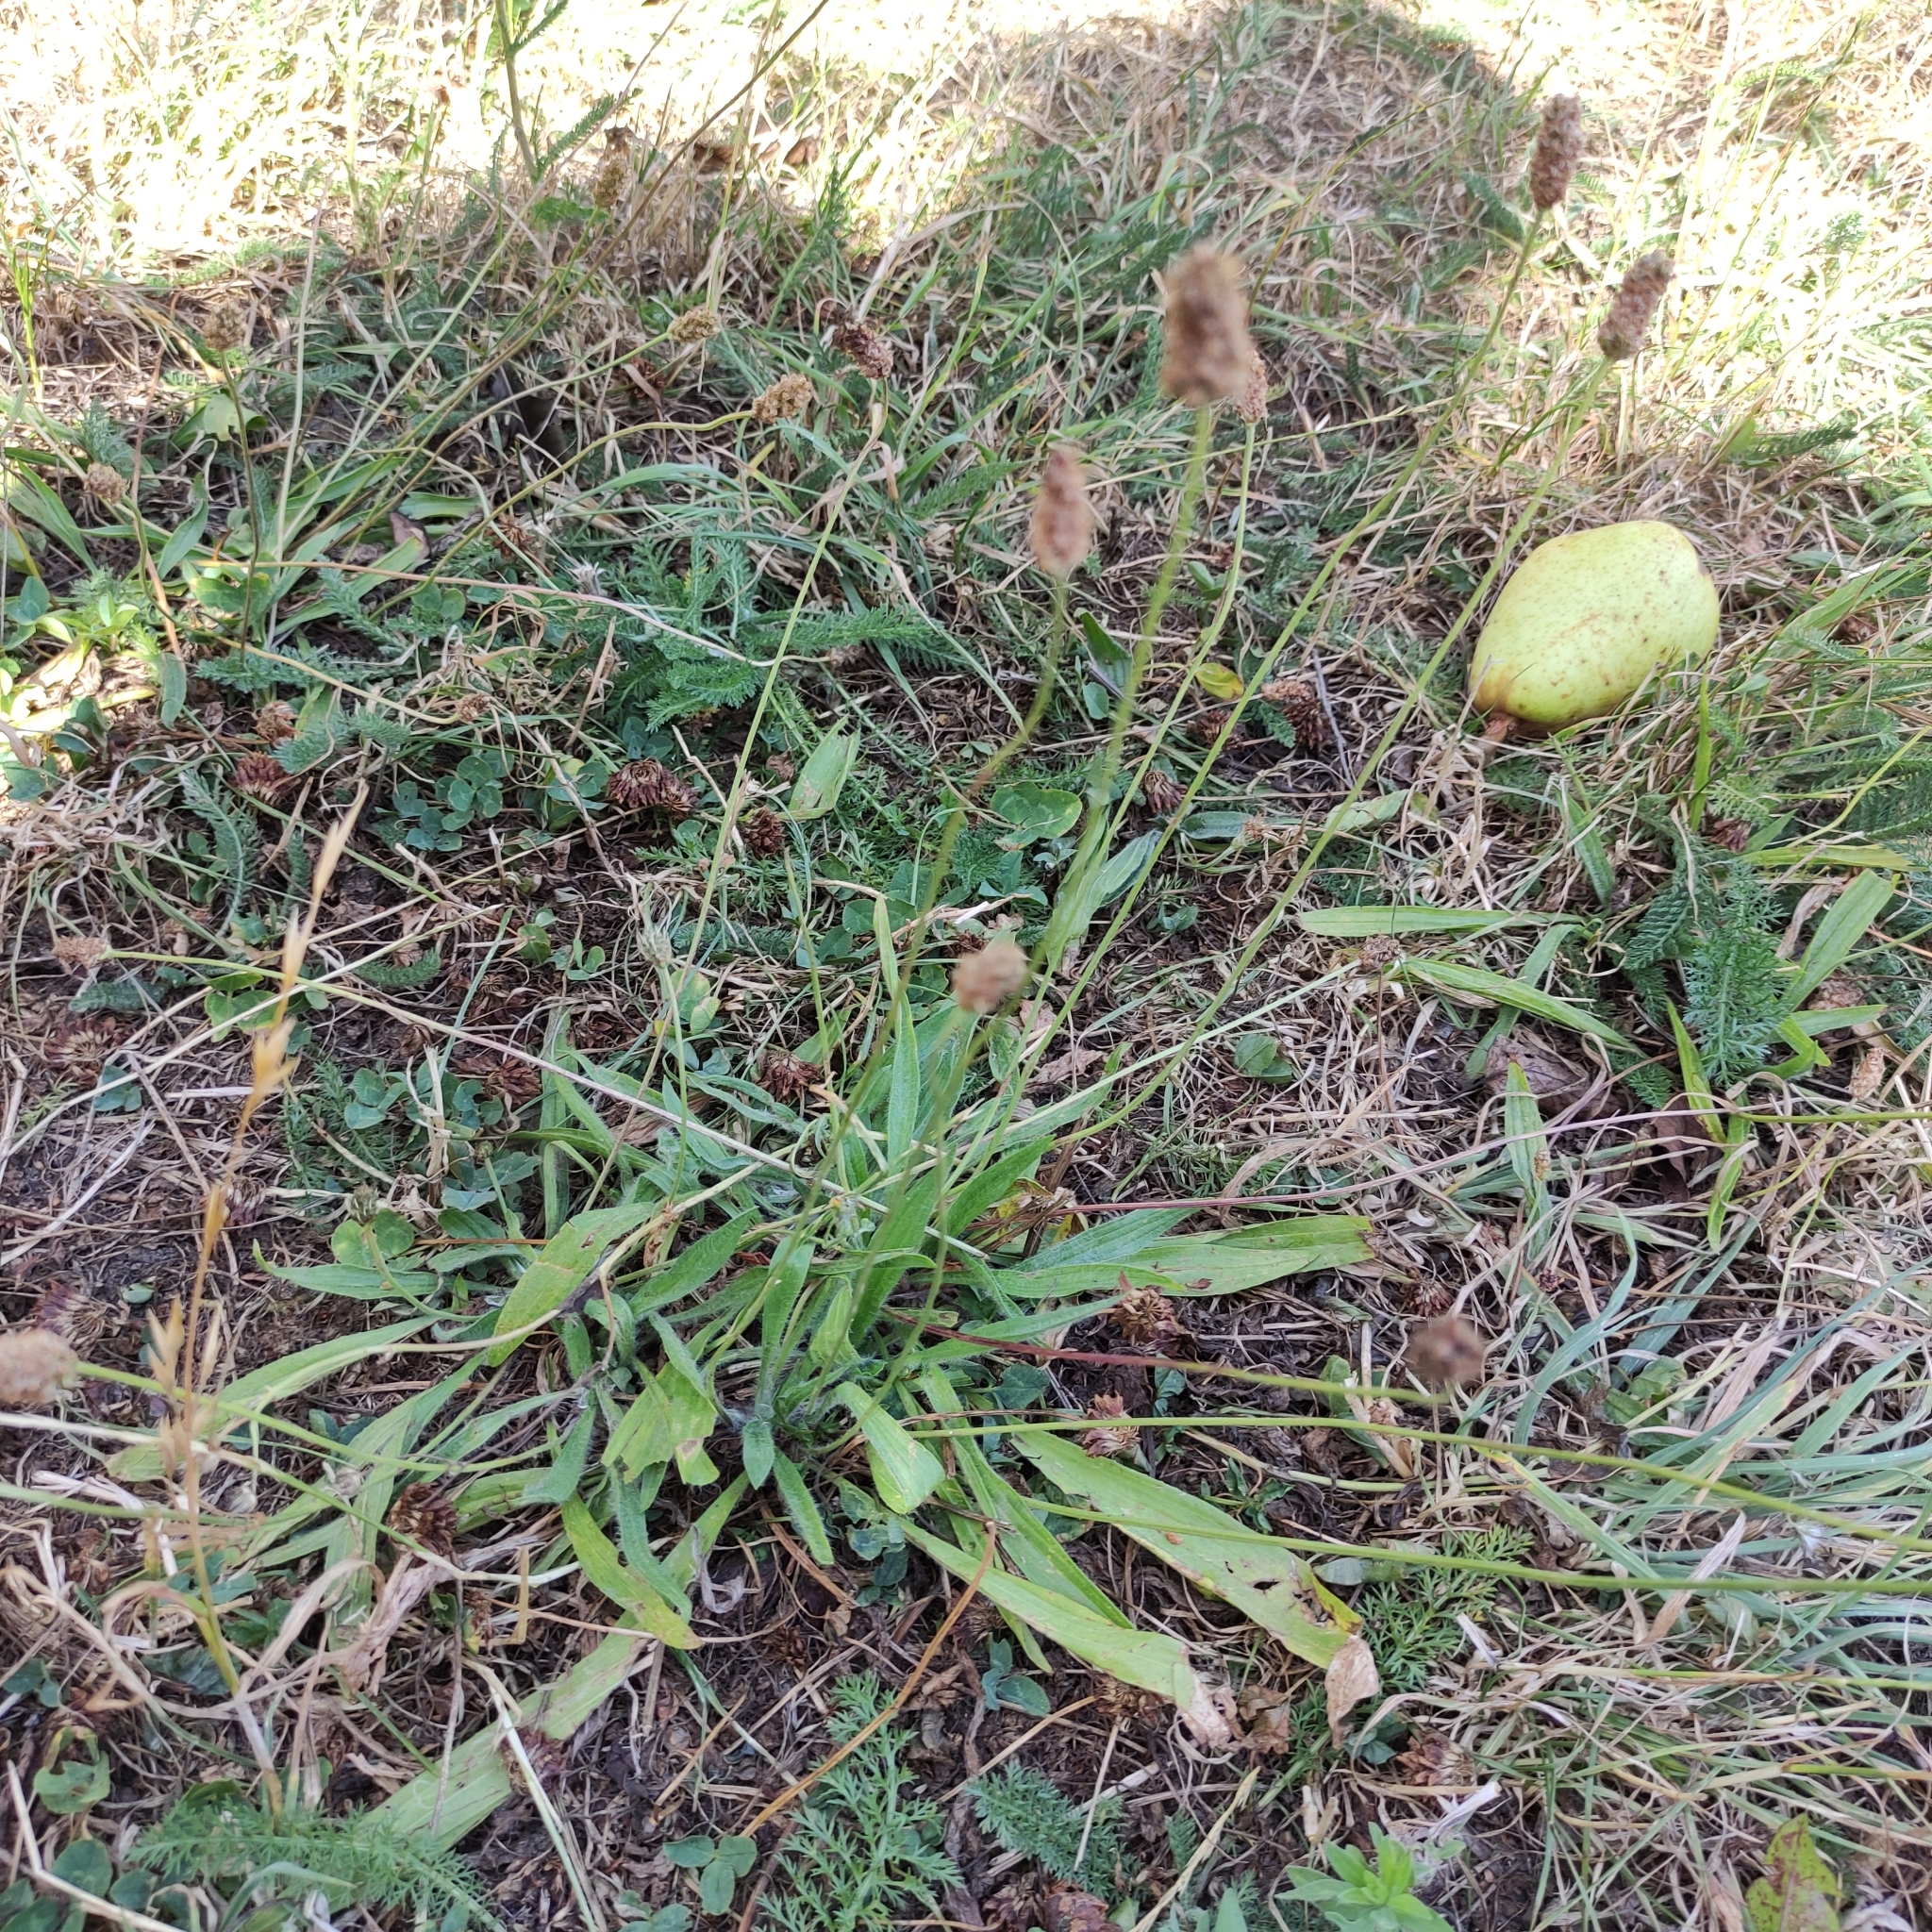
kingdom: Plantae
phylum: Tracheophyta
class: Magnoliopsida
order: Lamiales
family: Plantaginaceae
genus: Plantago
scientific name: Plantago lanceolata
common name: Ribwort plantain
